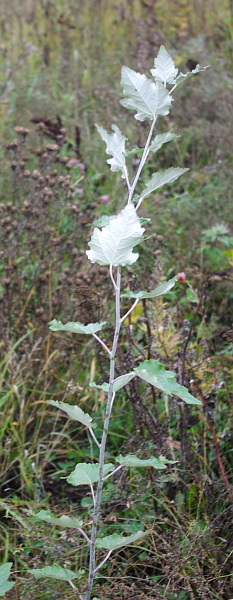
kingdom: Plantae
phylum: Tracheophyta
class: Magnoliopsida
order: Malpighiales
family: Salicaceae
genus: Populus
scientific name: Populus alba
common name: White poplar
